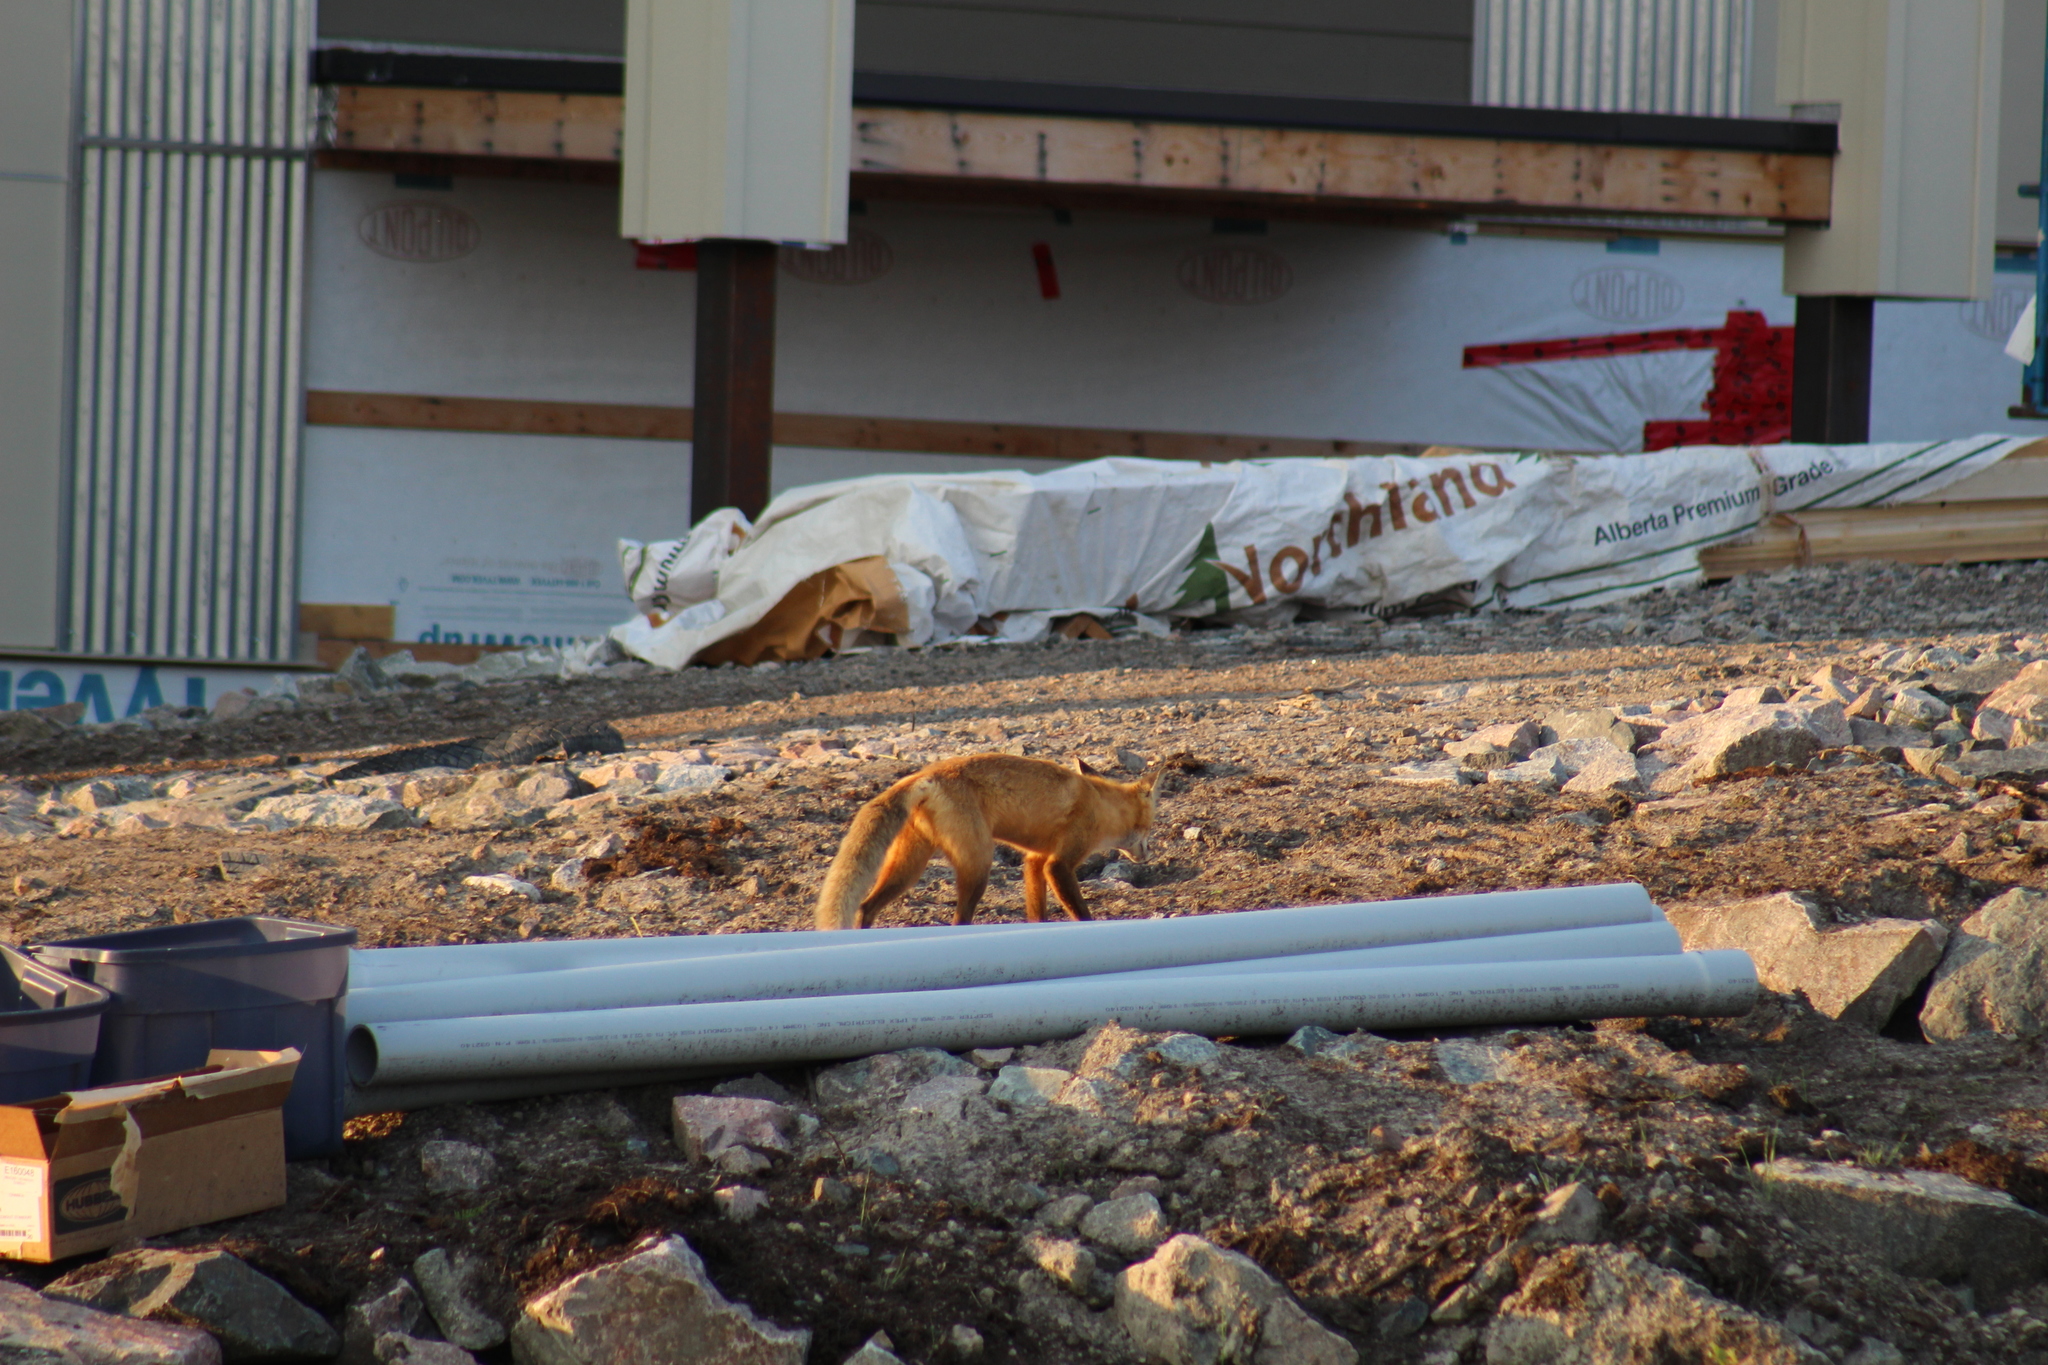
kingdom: Animalia
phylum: Chordata
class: Mammalia
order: Carnivora
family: Canidae
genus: Vulpes
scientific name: Vulpes vulpes
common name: Red fox
